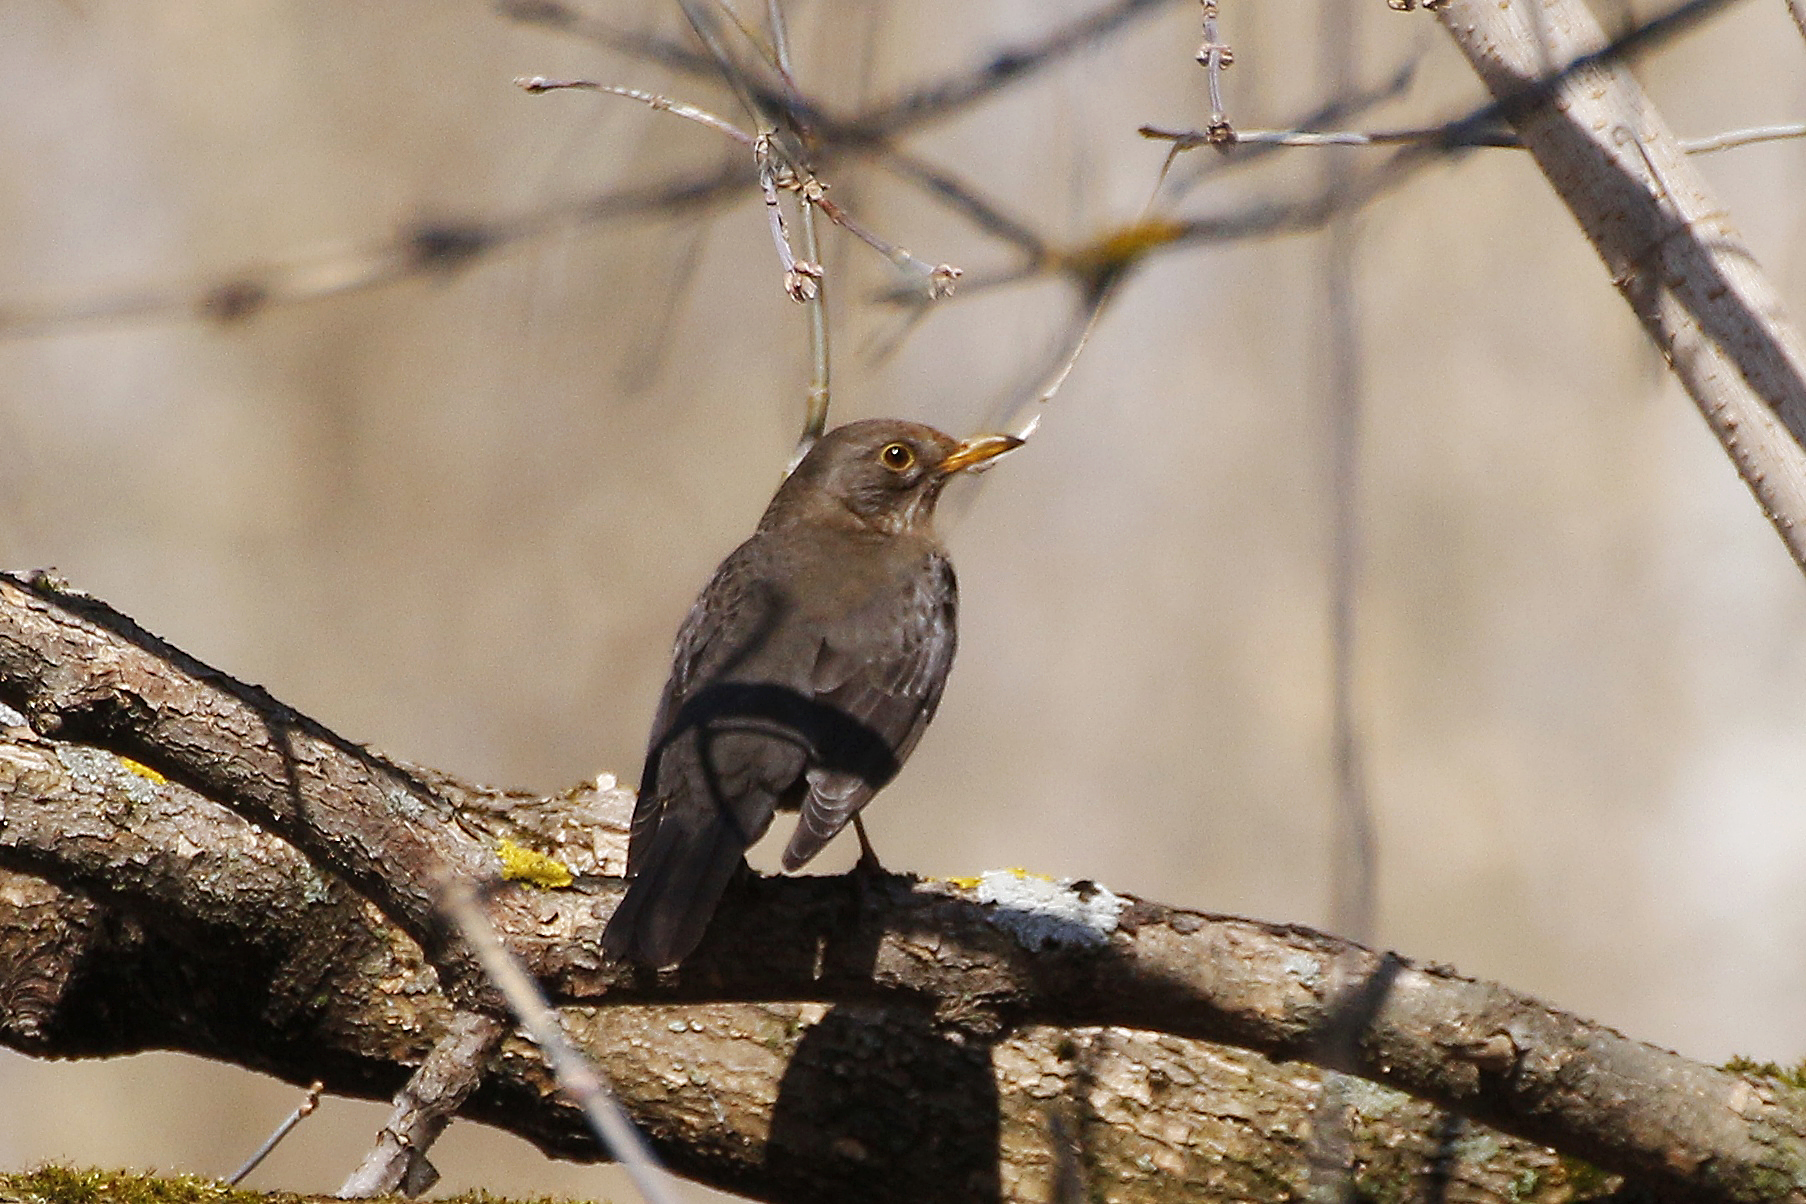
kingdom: Animalia
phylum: Chordata
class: Aves
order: Passeriformes
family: Turdidae
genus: Turdus
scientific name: Turdus merula
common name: Common blackbird
